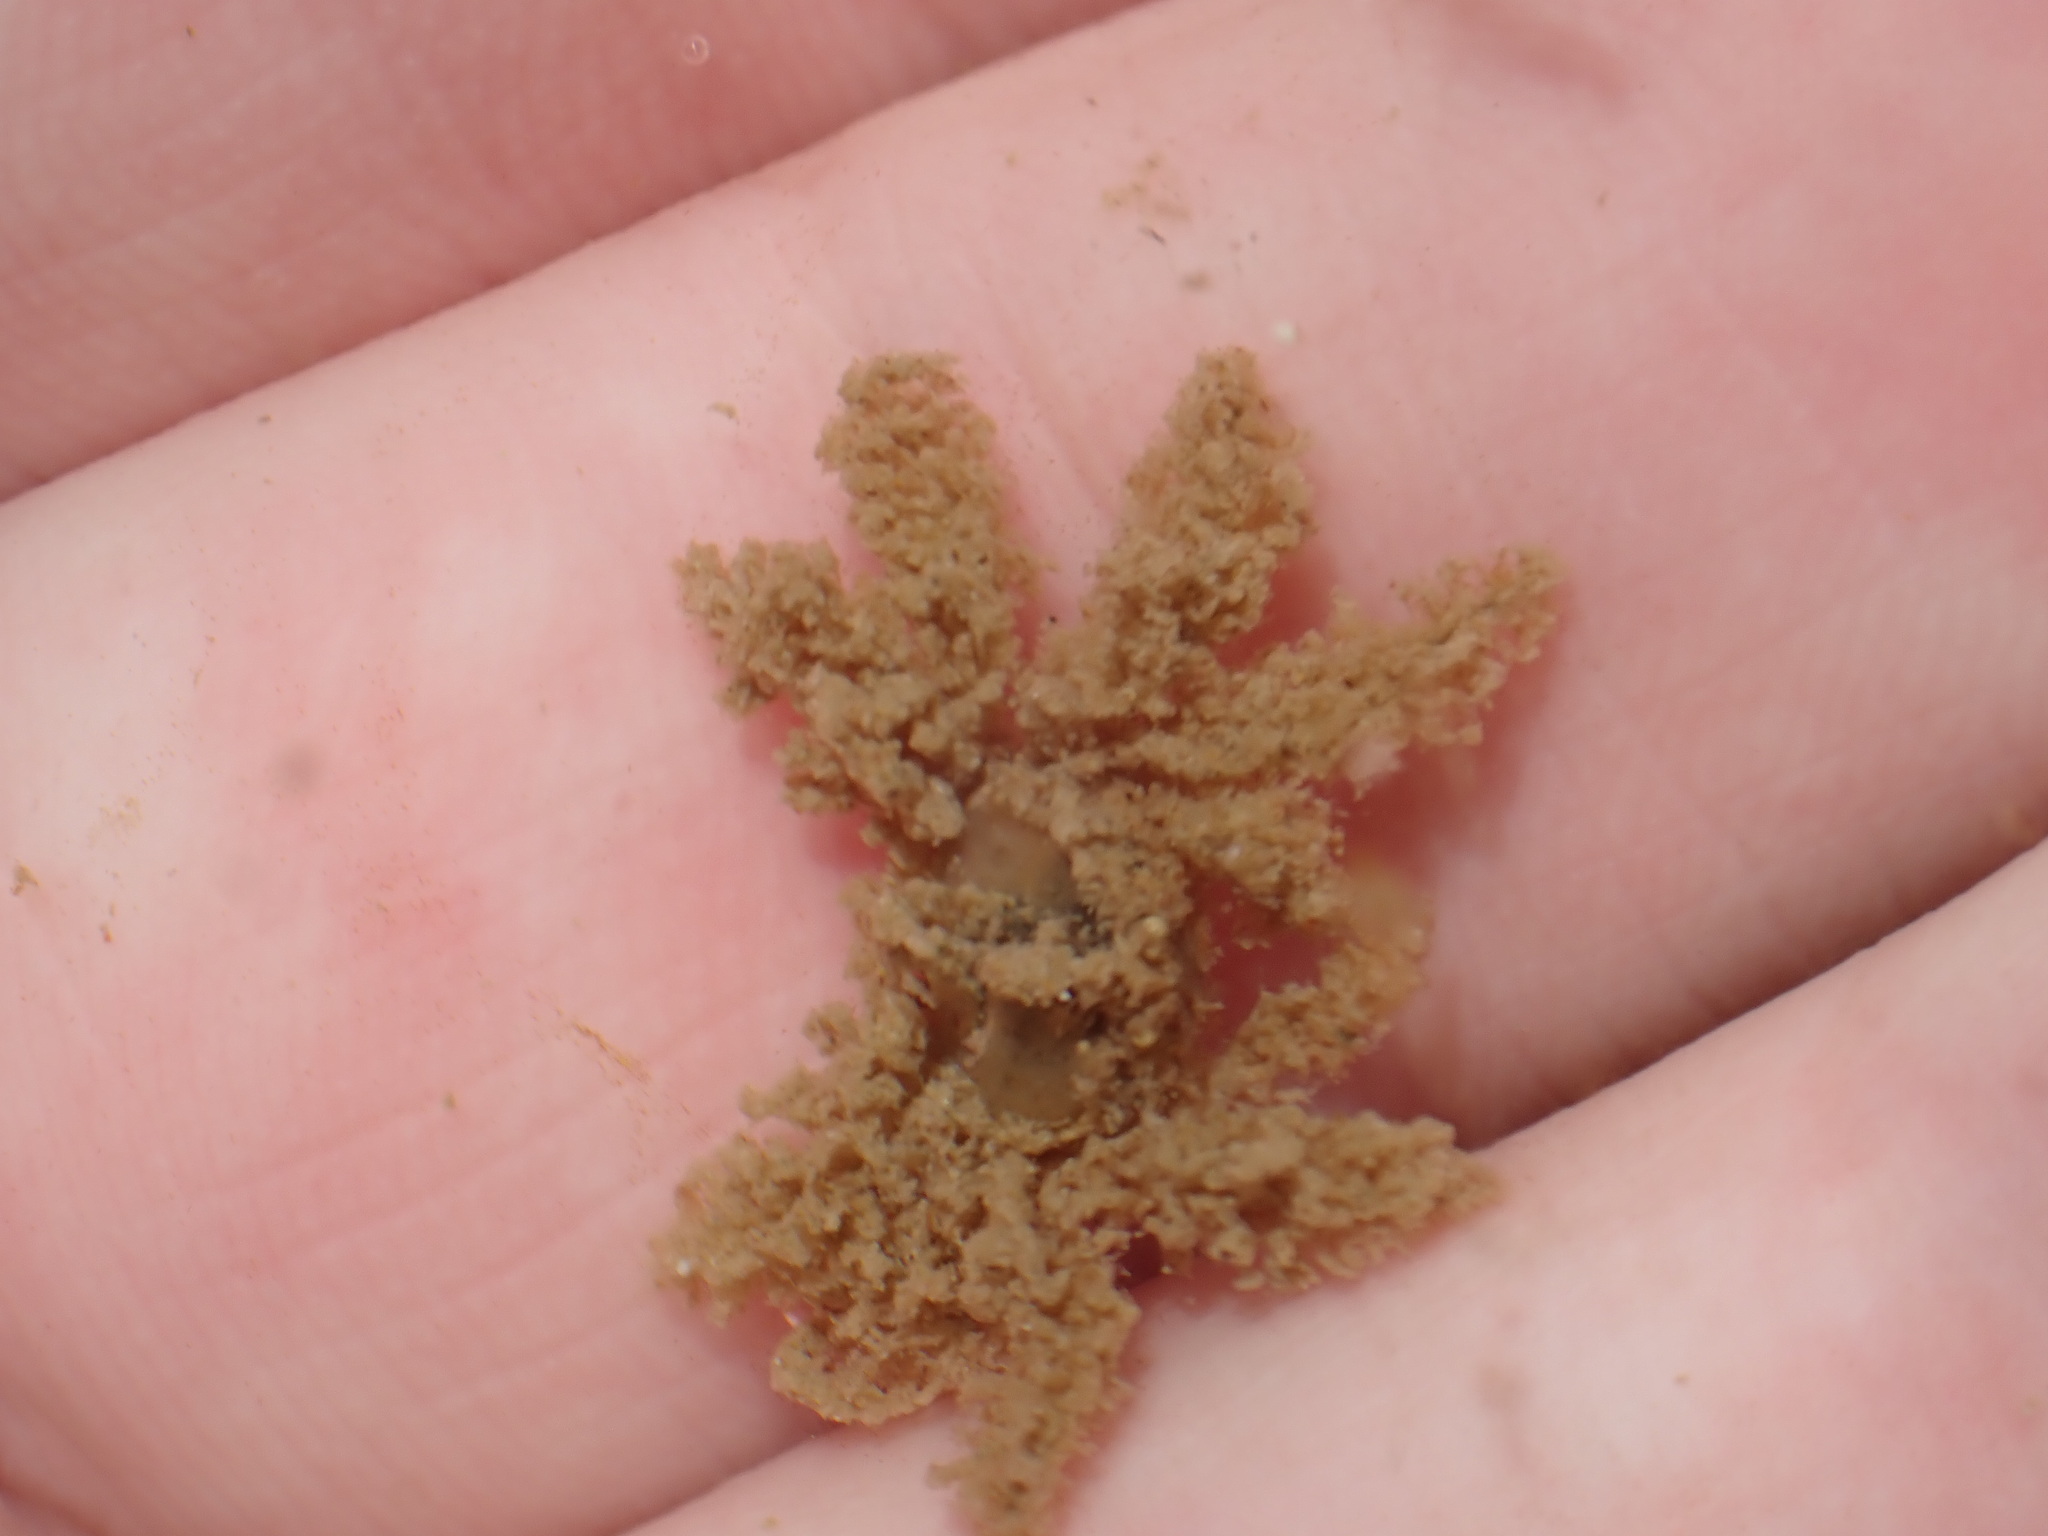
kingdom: Animalia
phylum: Arthropoda
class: Malacostraca
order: Decapoda
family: Hymenosomatidae
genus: Neohymenicus
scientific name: Neohymenicus pubescens
